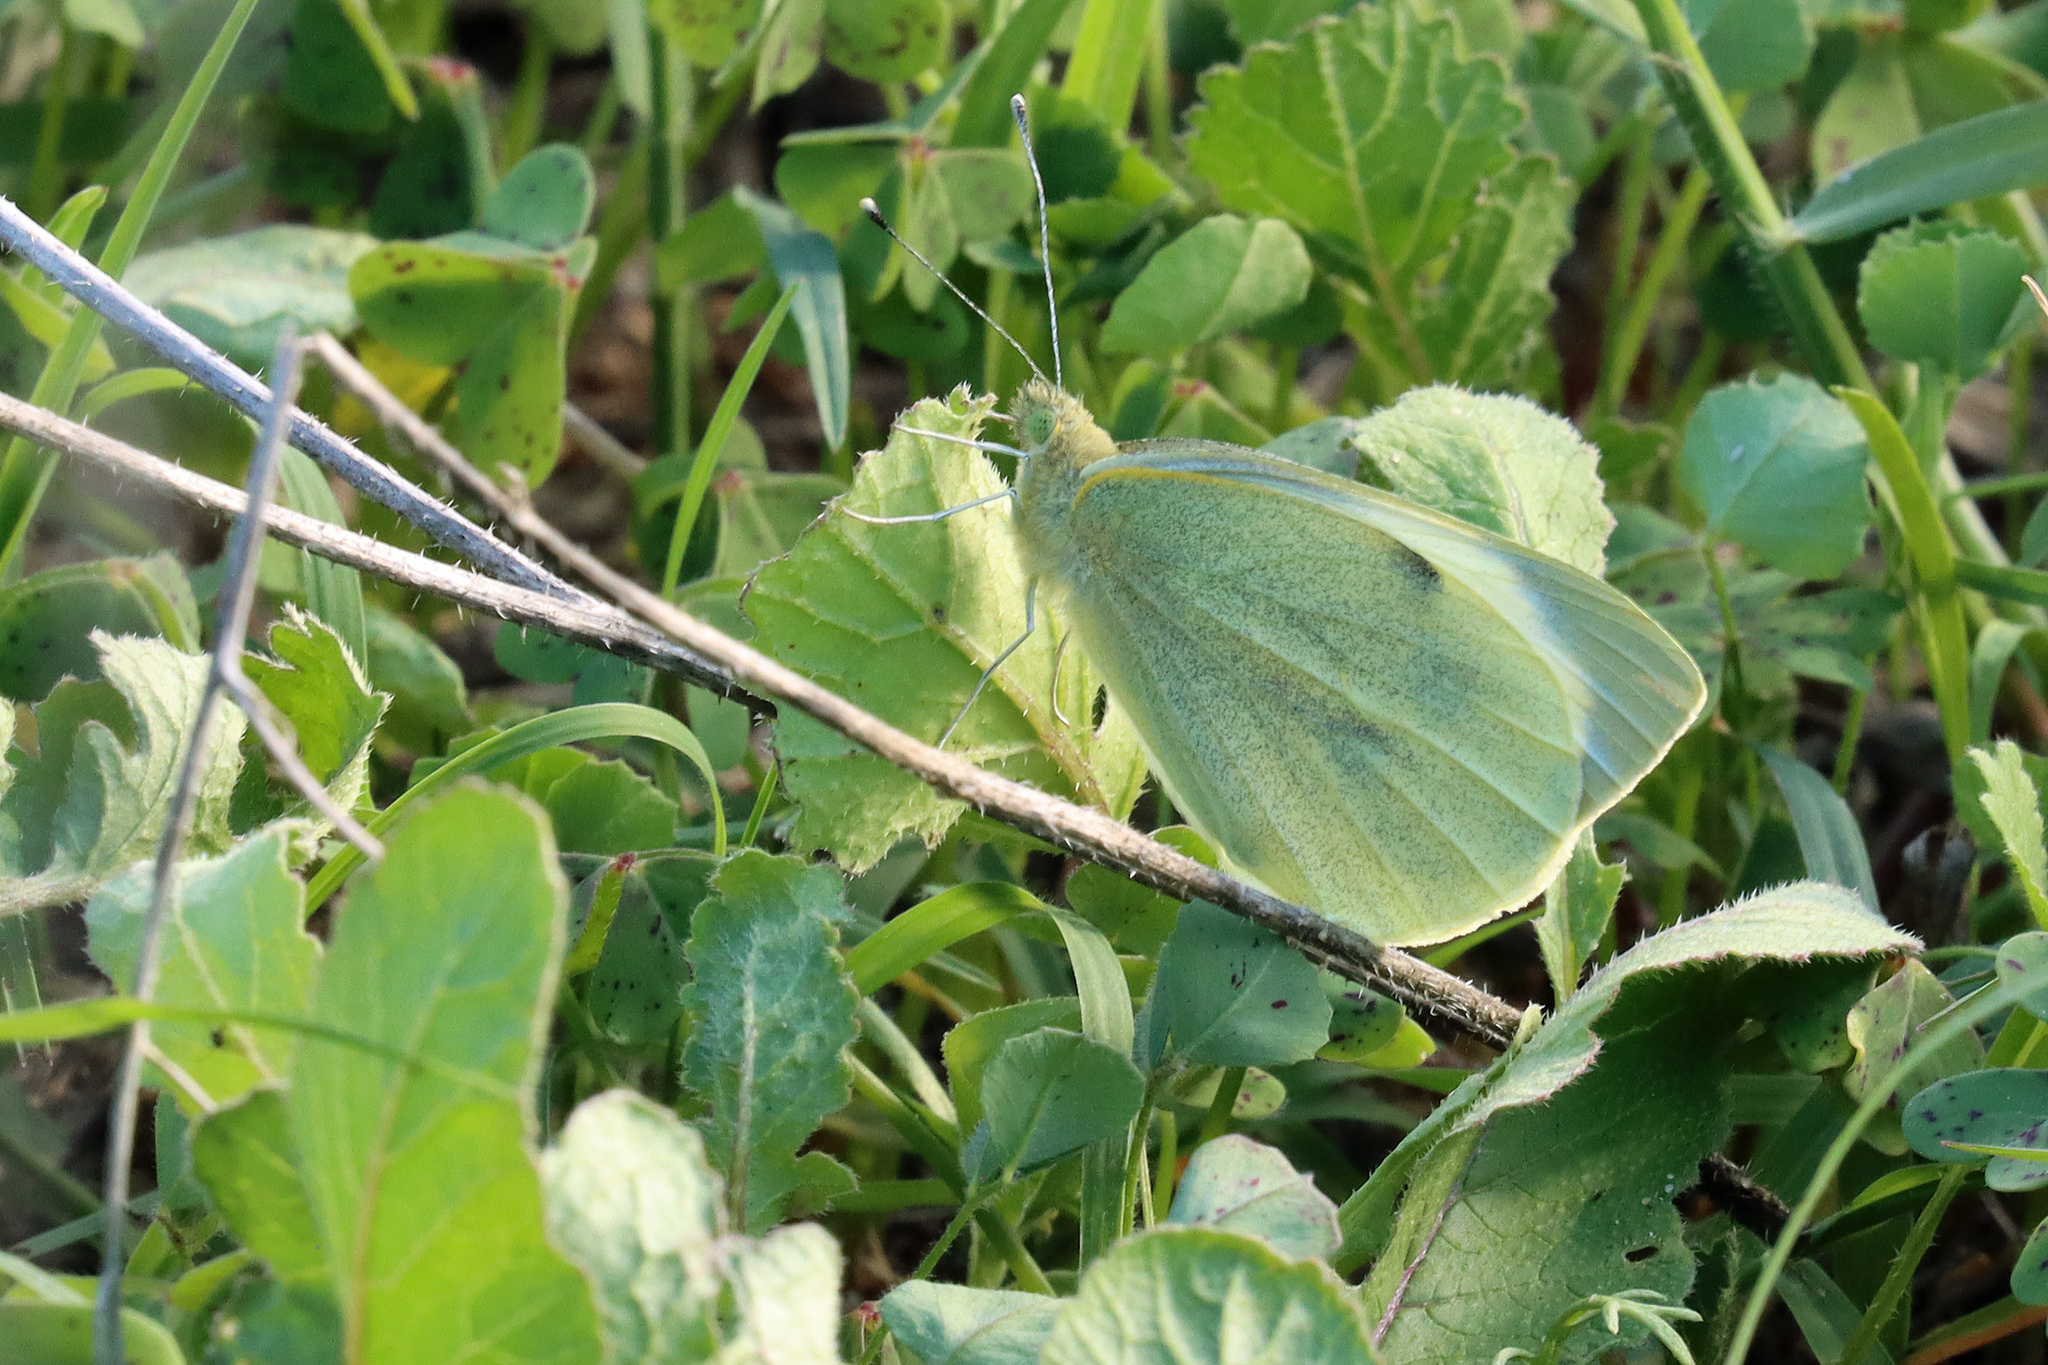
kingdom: Animalia
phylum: Arthropoda
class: Insecta
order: Lepidoptera
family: Pieridae
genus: Pieris
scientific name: Pieris brassicae
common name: Large white
